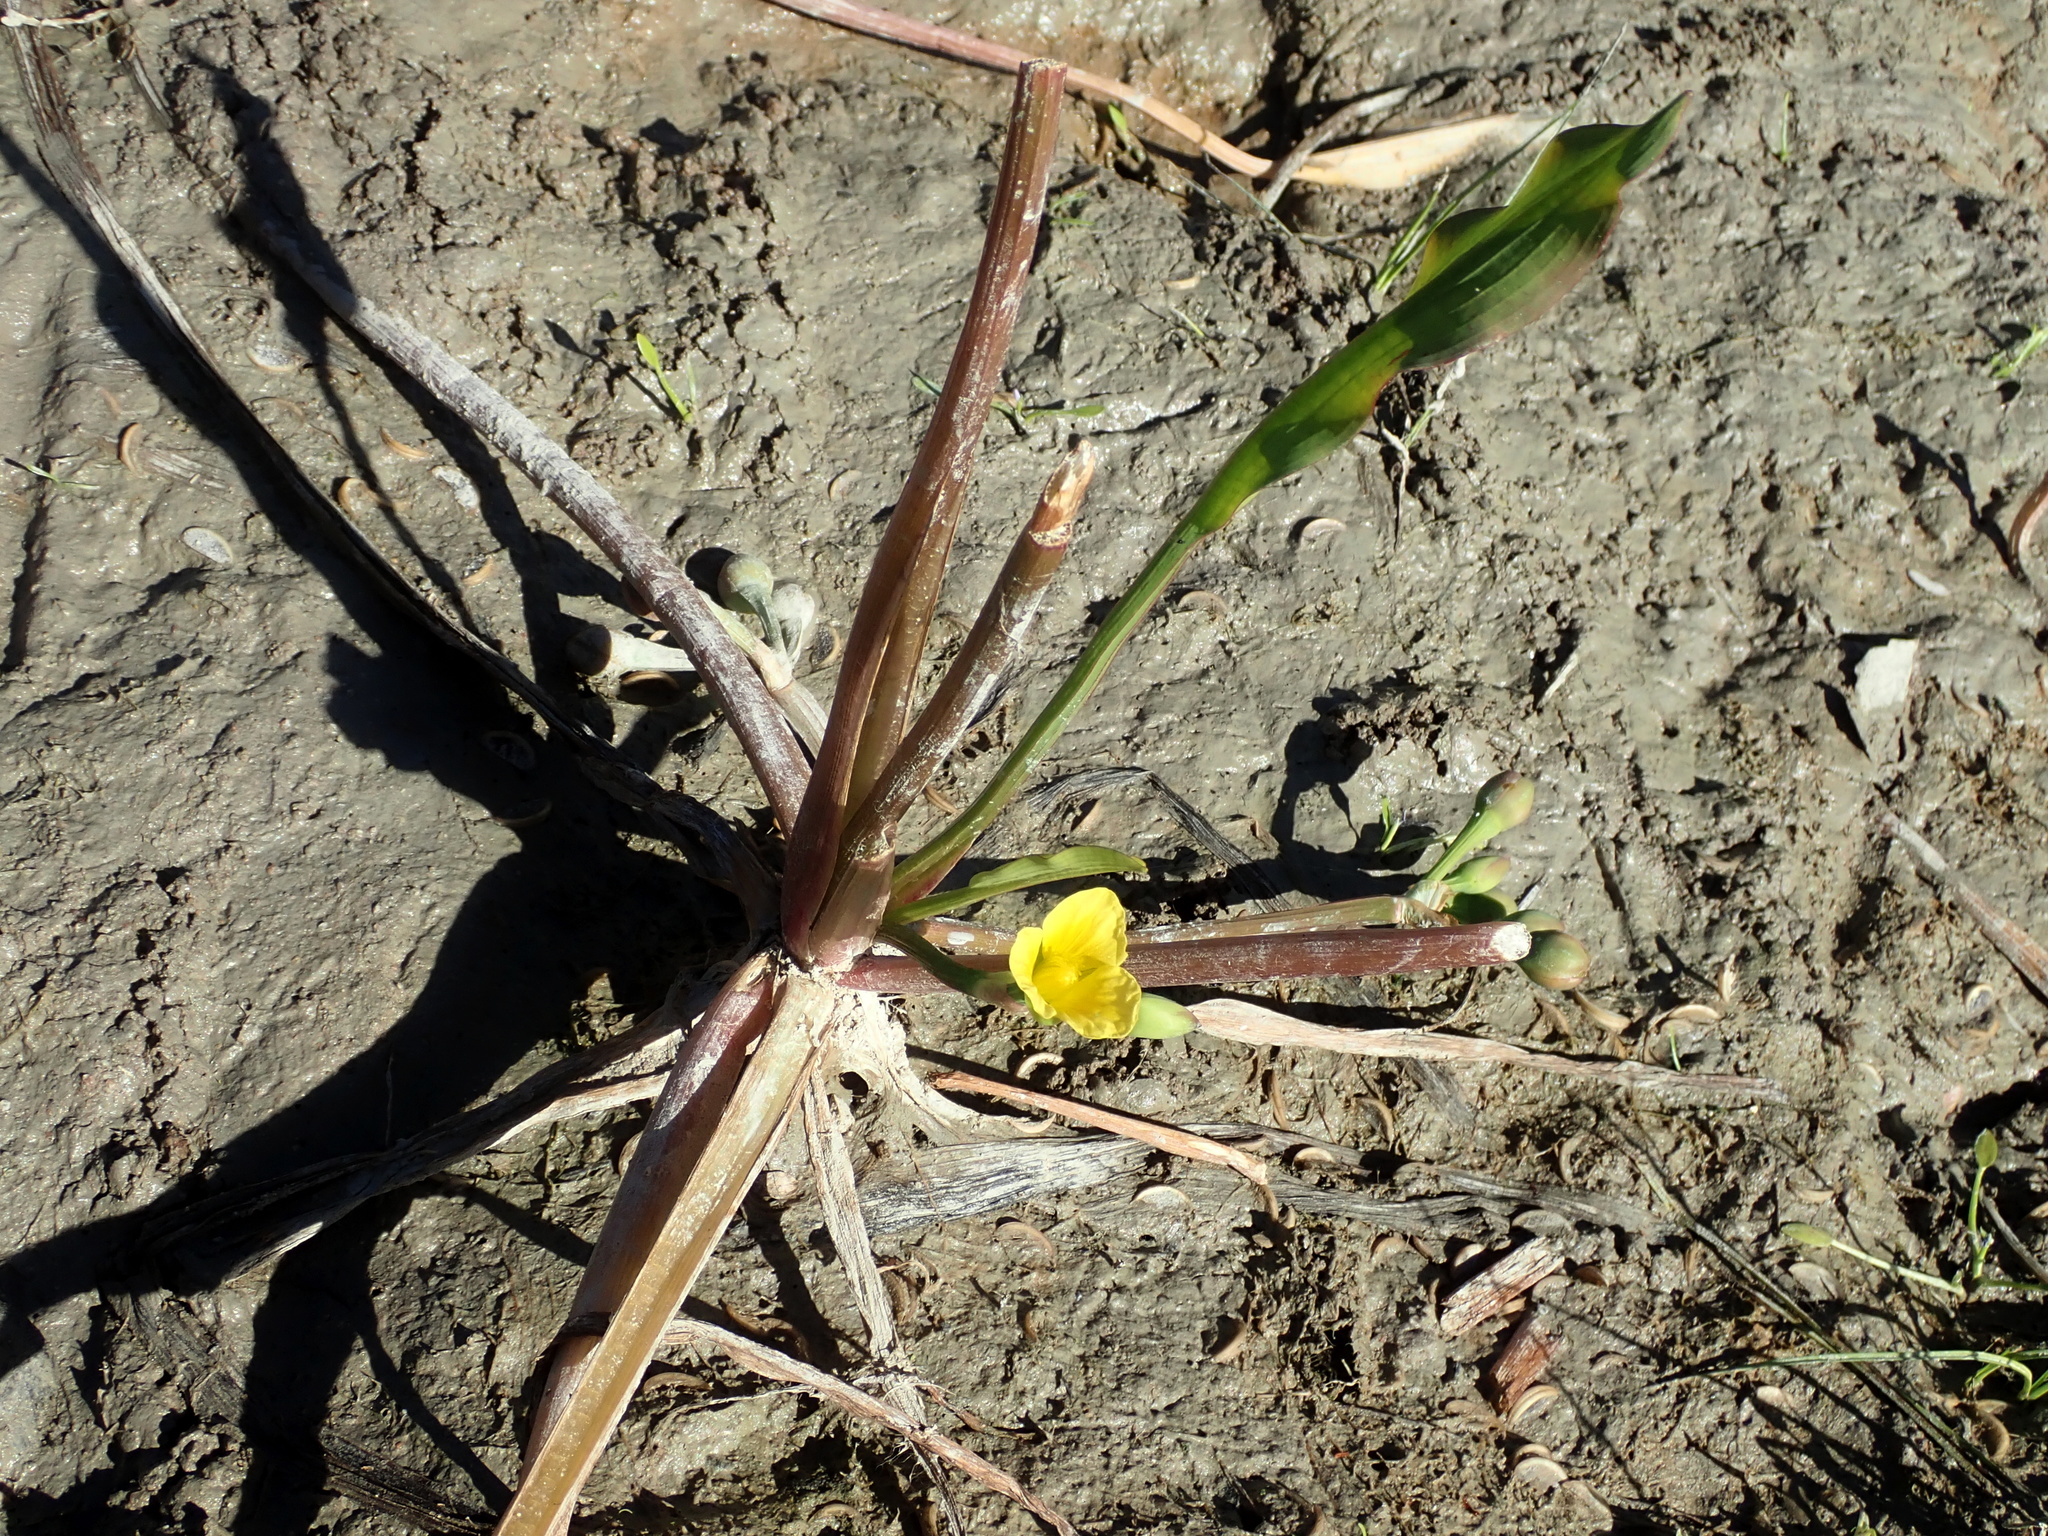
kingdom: Plantae
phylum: Tracheophyta
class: Liliopsida
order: Alismatales
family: Alismataceae
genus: Limnocharis
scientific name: Limnocharis laforestii
